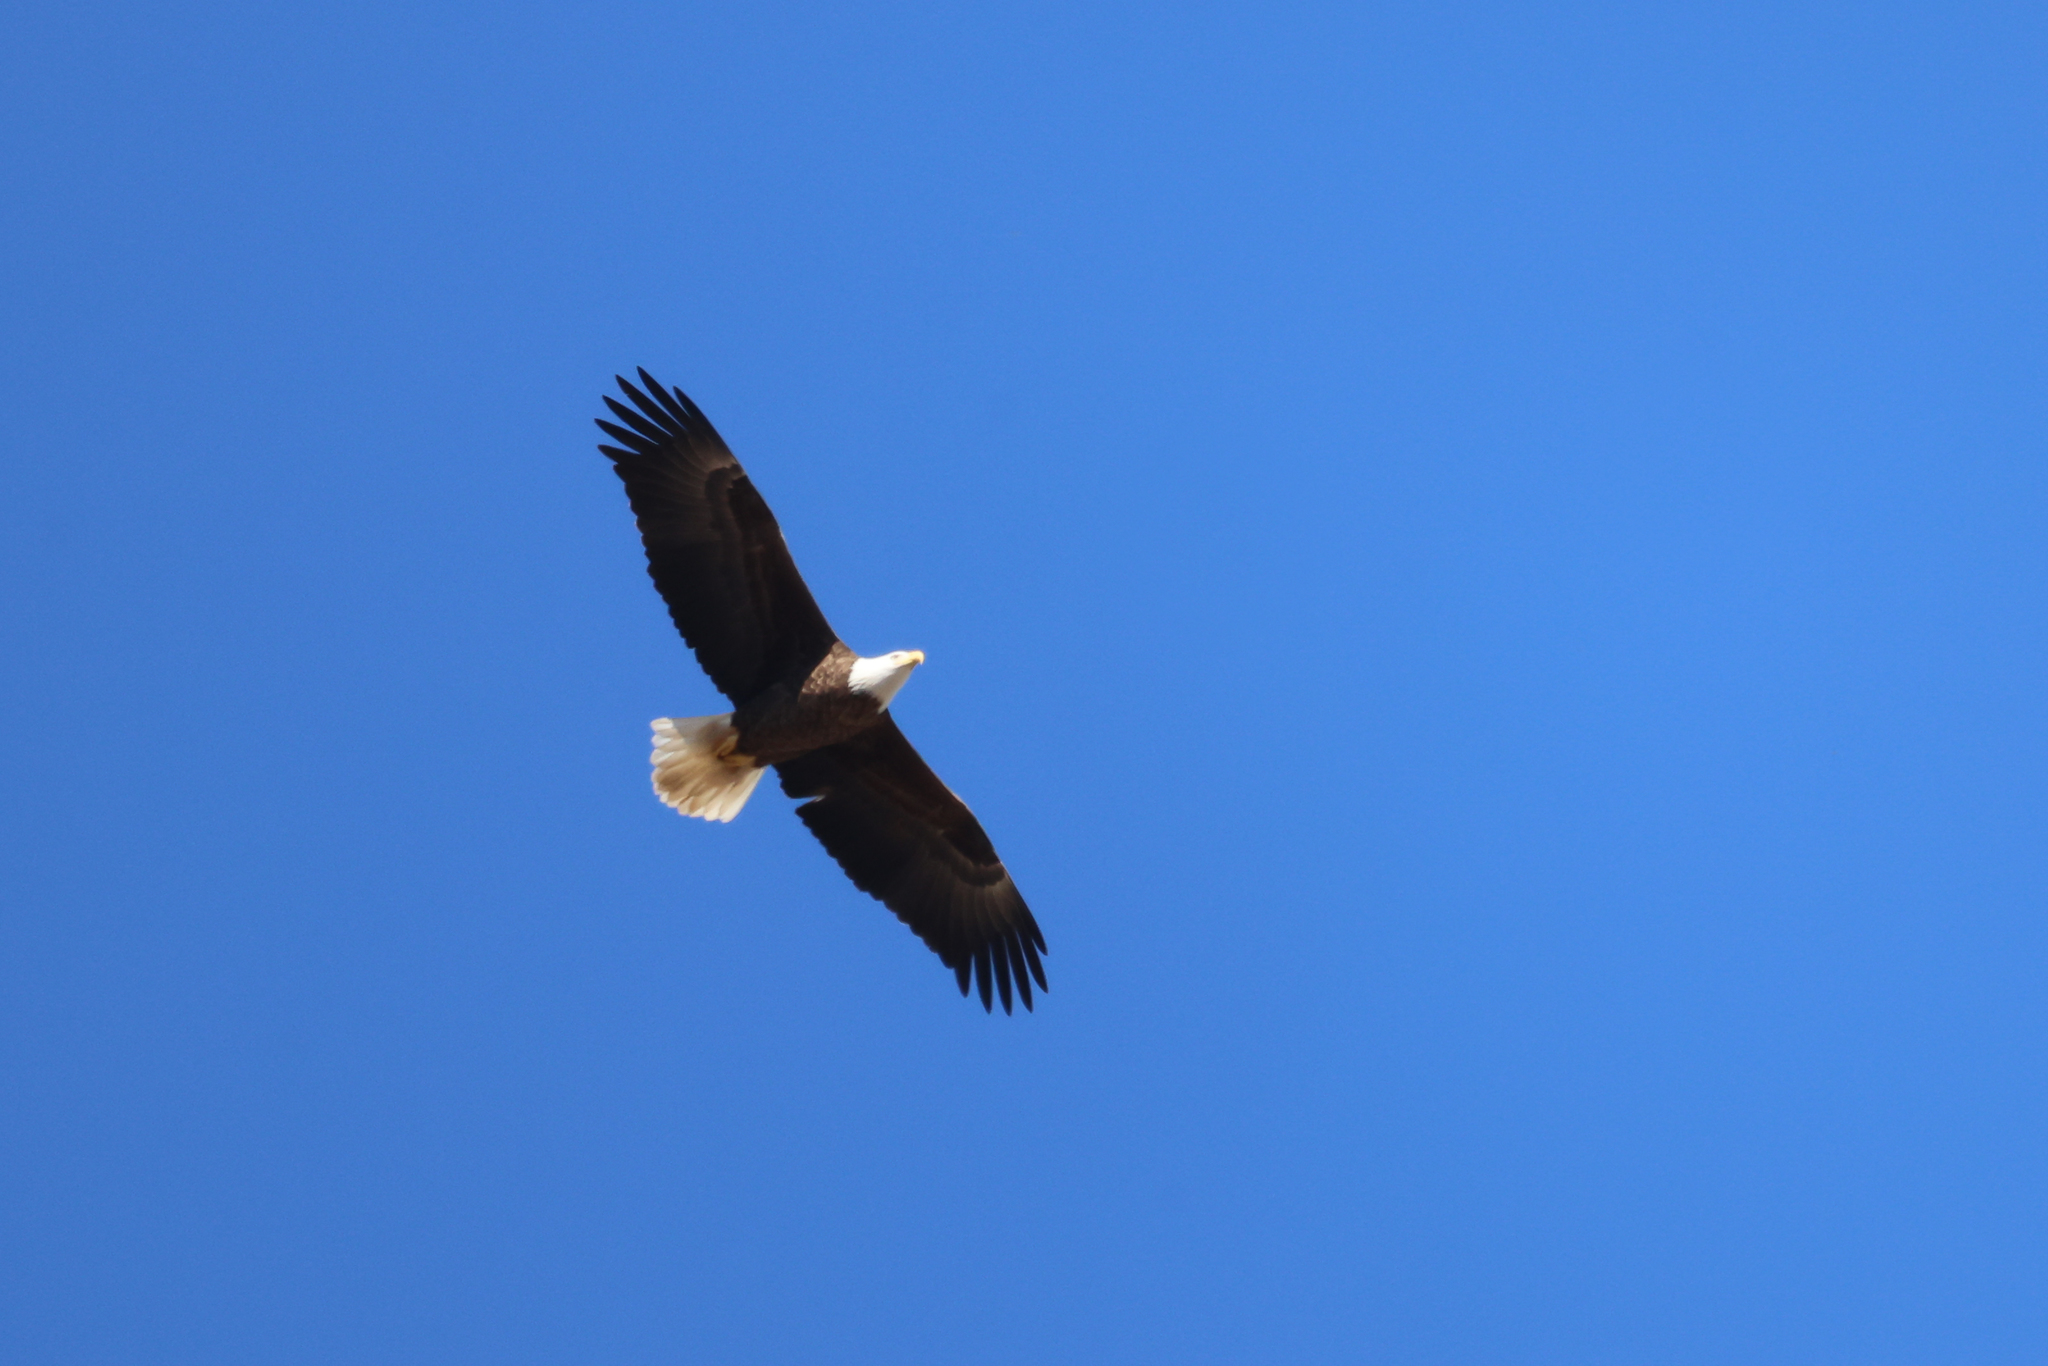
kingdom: Animalia
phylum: Chordata
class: Aves
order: Accipitriformes
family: Accipitridae
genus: Haliaeetus
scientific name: Haliaeetus leucocephalus
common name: Bald eagle
